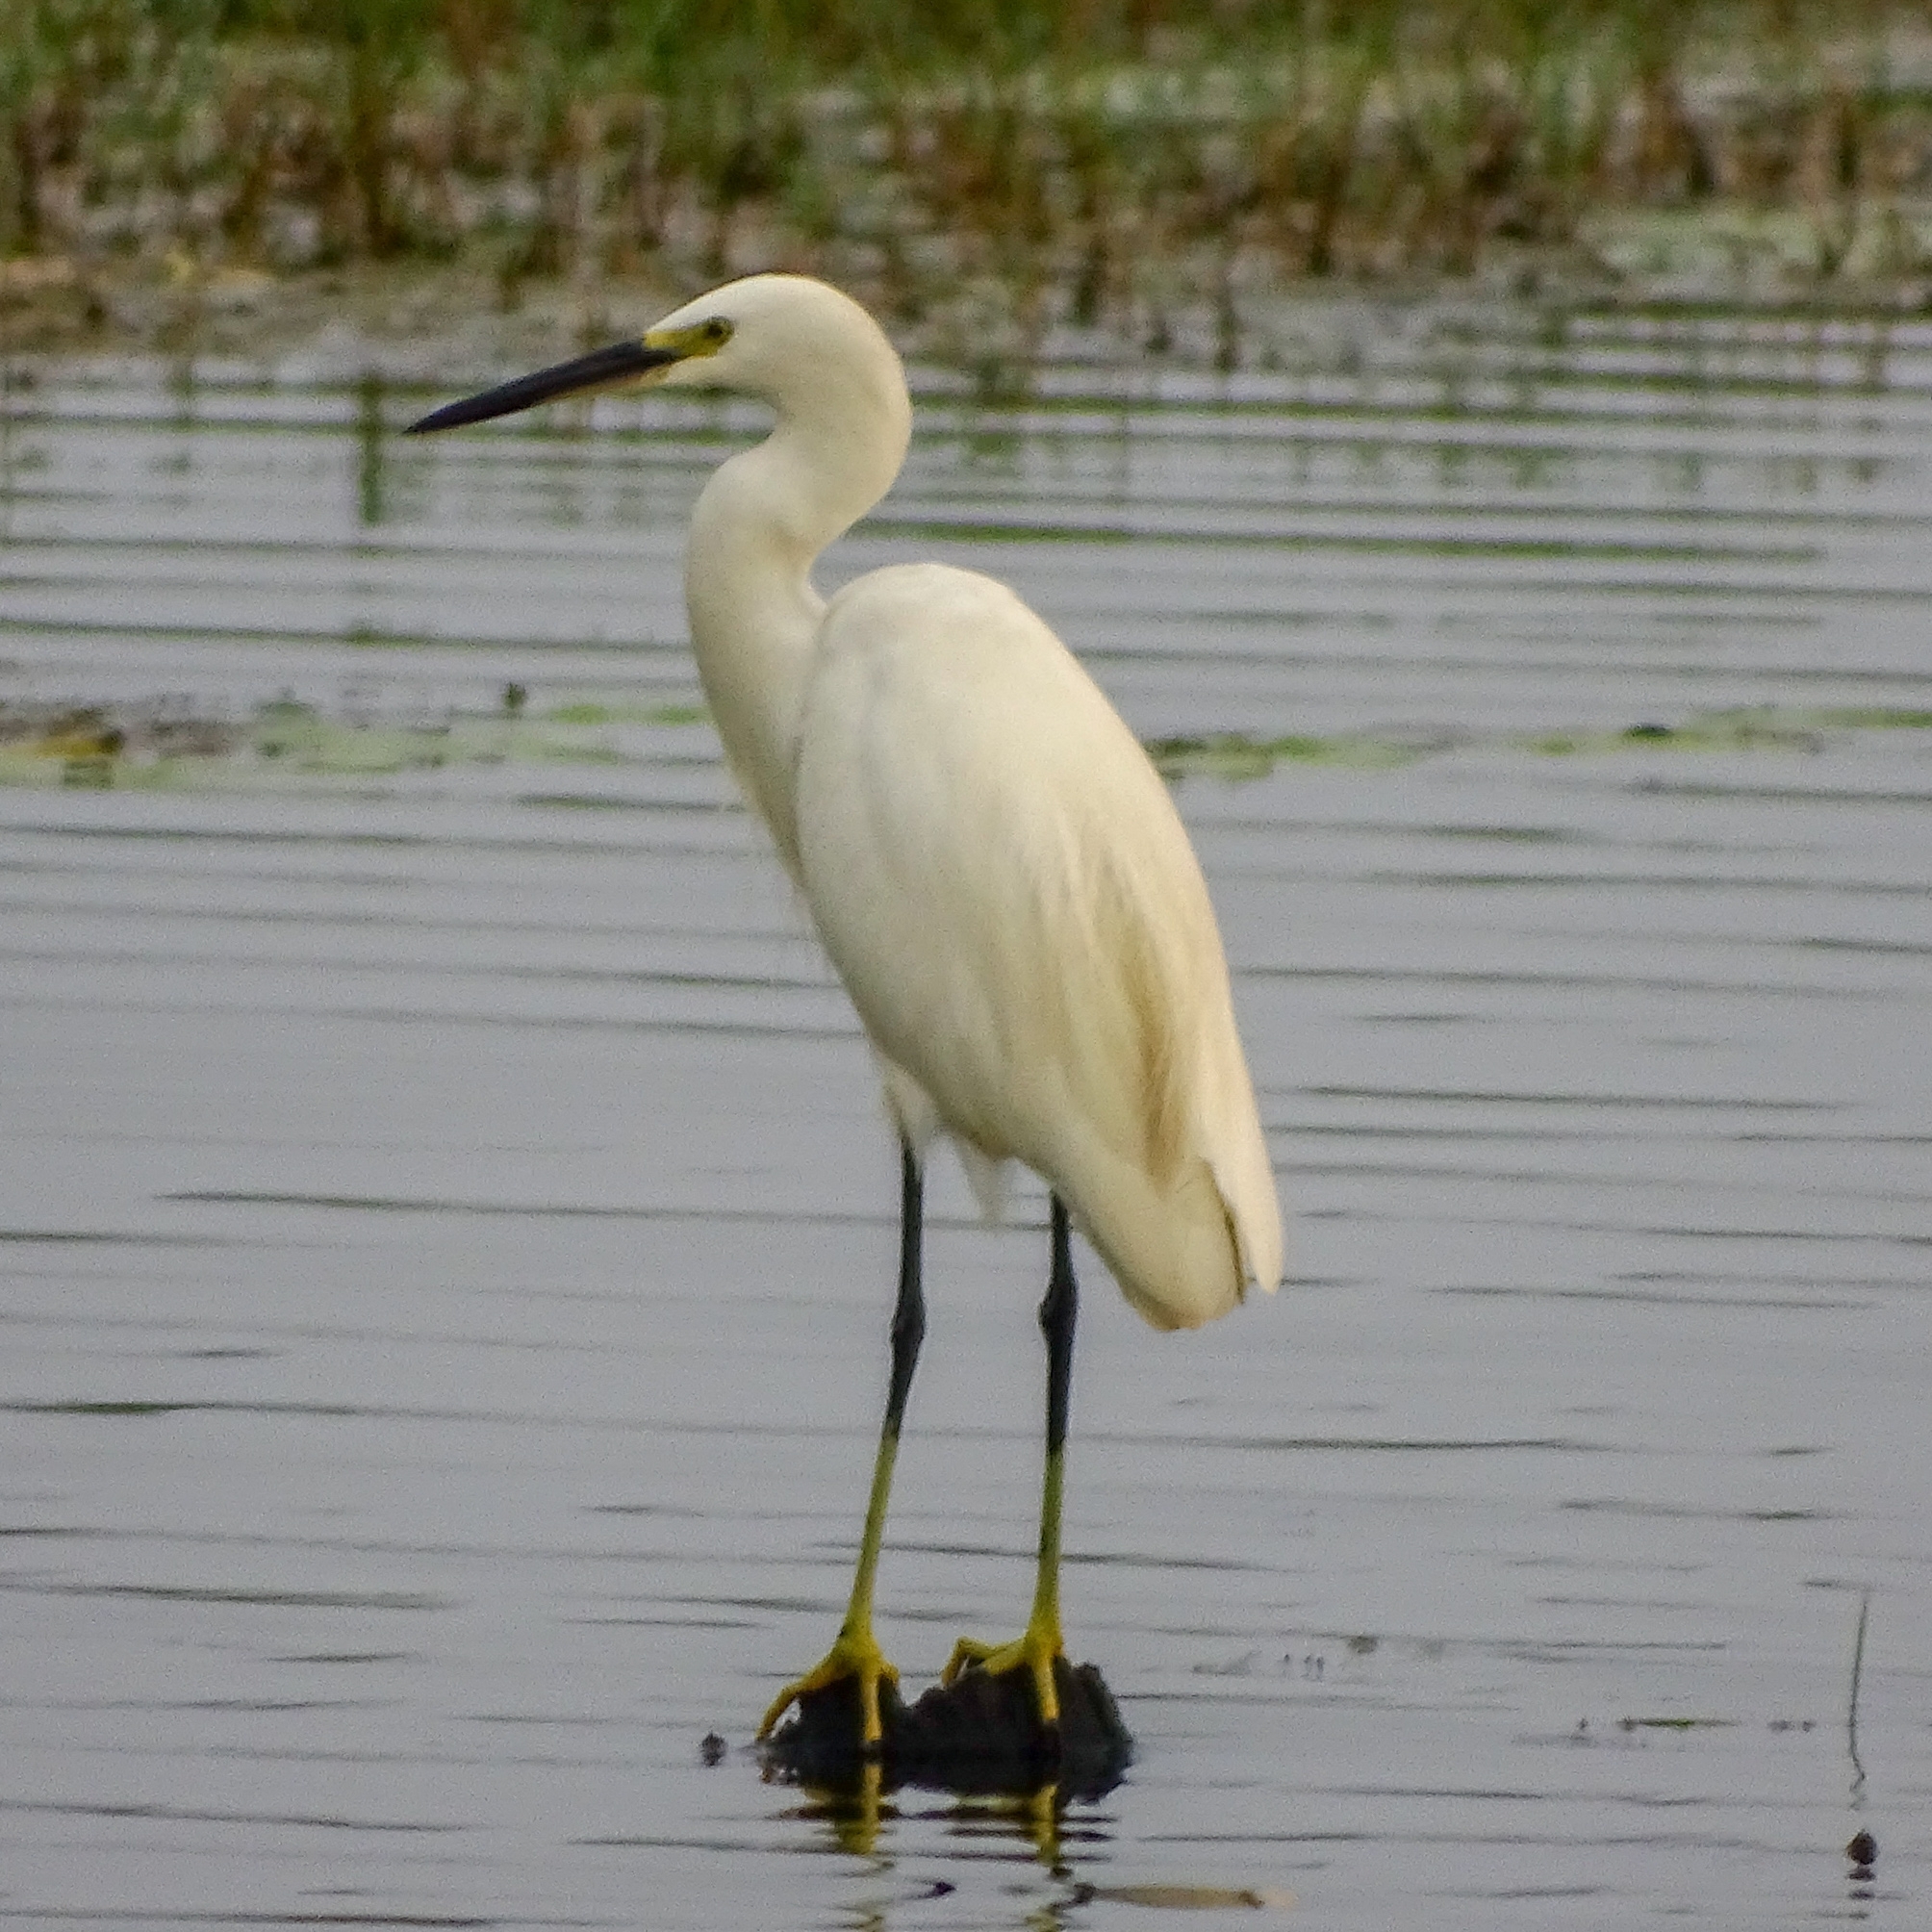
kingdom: Animalia
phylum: Chordata
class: Aves
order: Pelecaniformes
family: Ardeidae
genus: Egretta
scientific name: Egretta garzetta
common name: Little egret
